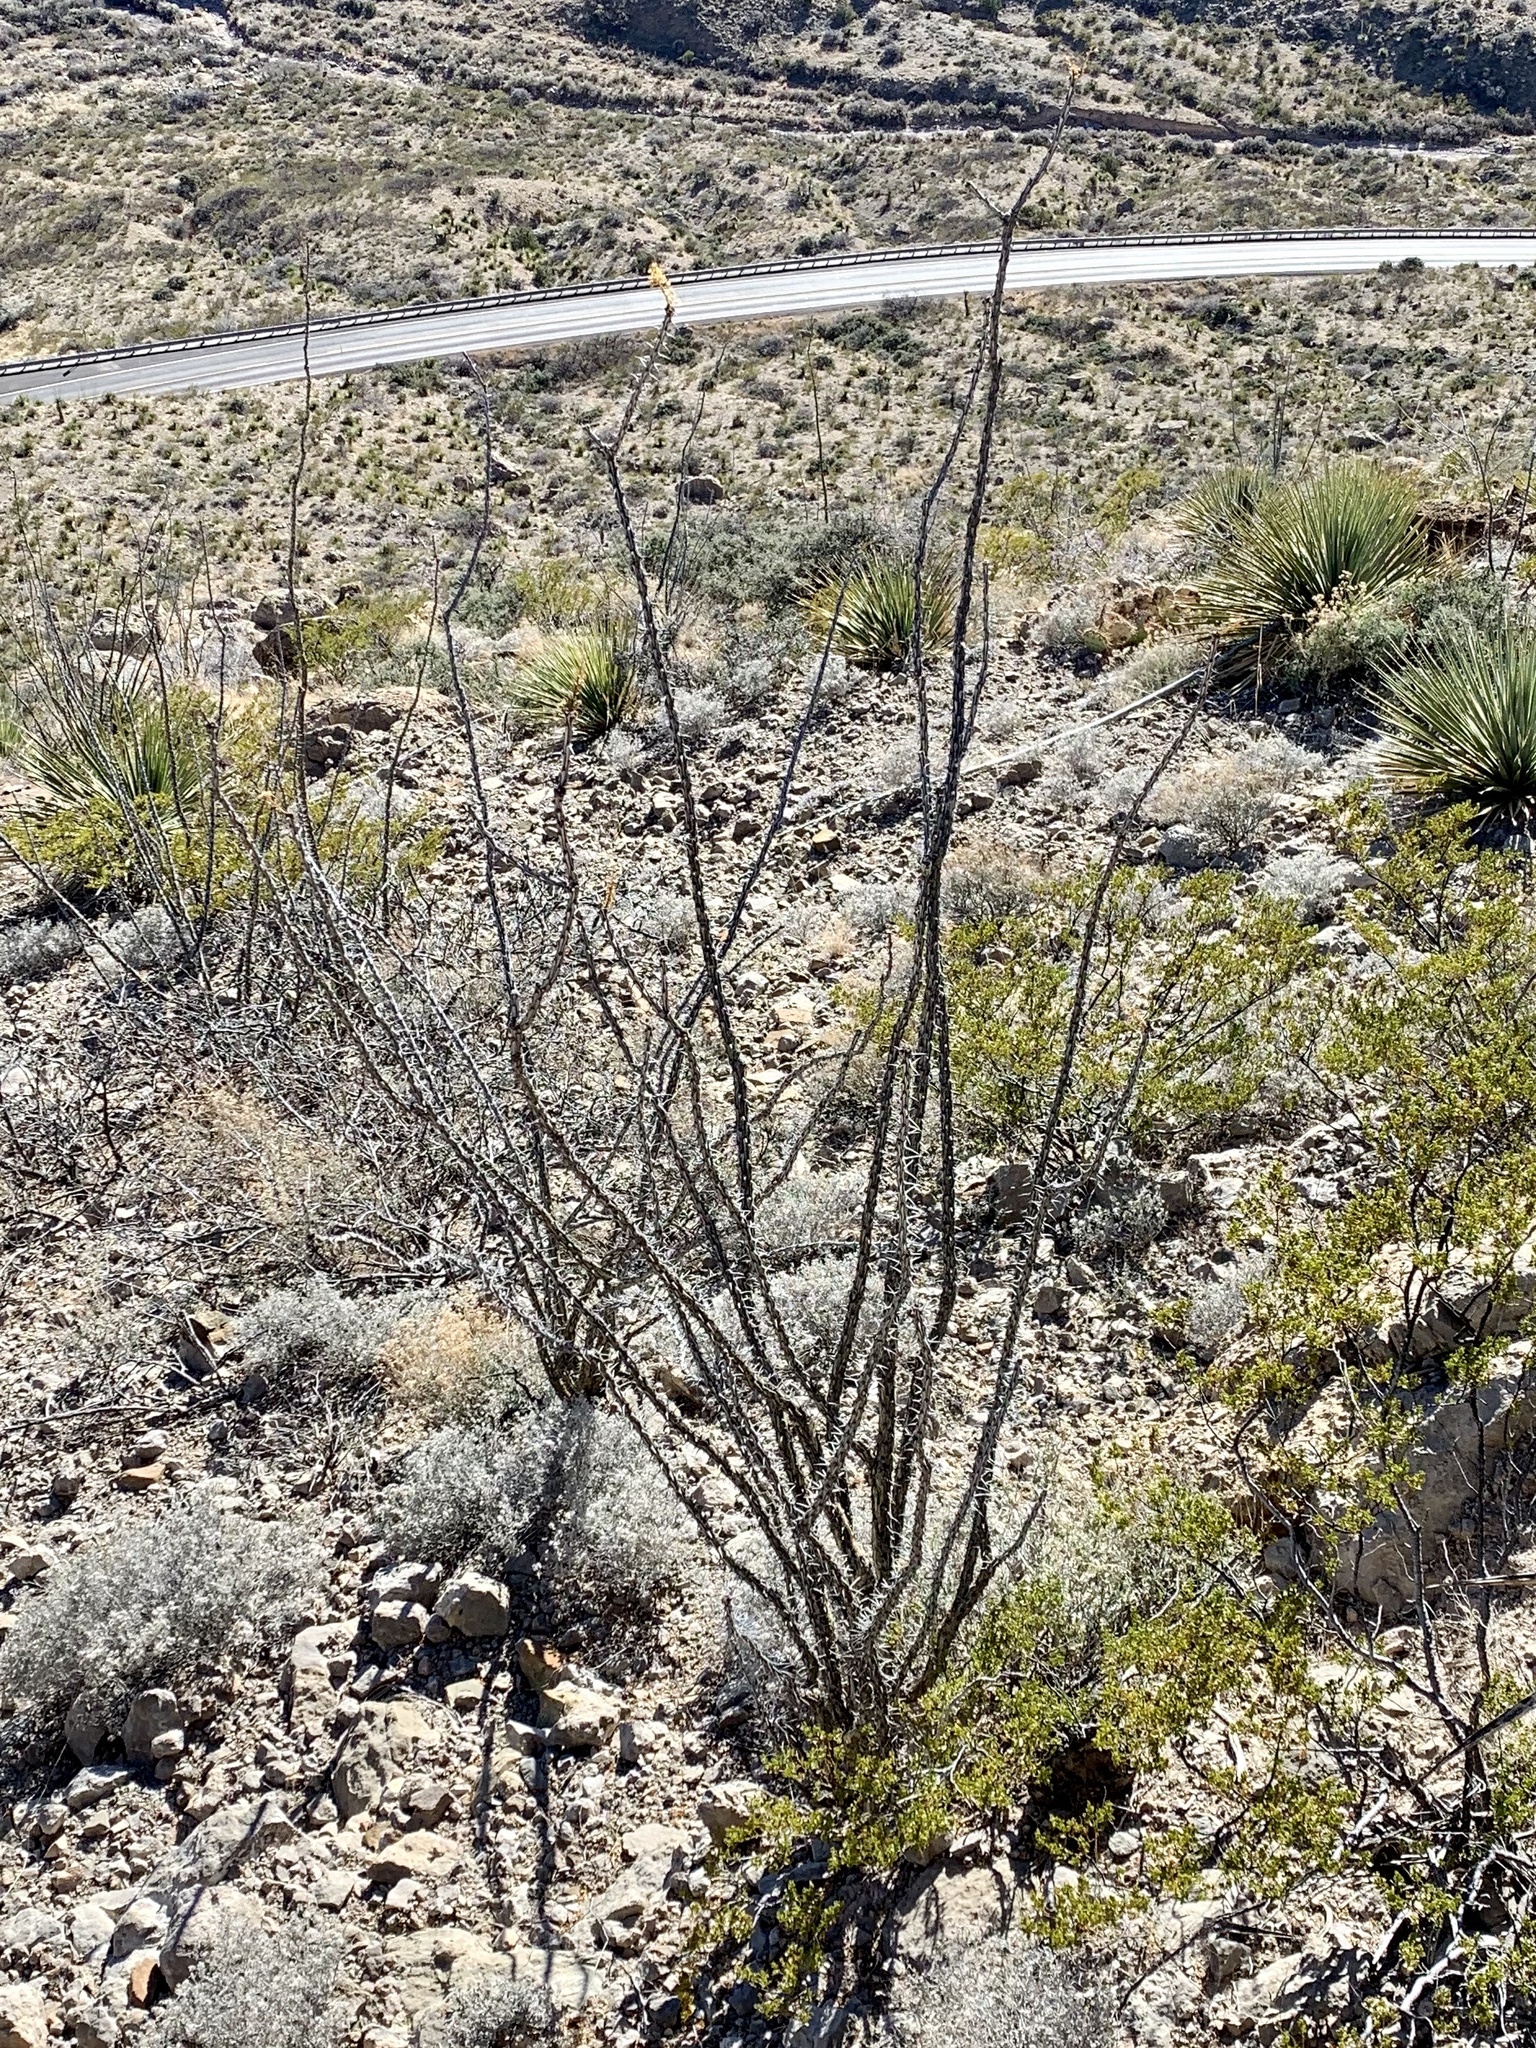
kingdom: Plantae
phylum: Tracheophyta
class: Magnoliopsida
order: Ericales
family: Fouquieriaceae
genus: Fouquieria
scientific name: Fouquieria splendens
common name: Vine-cactus
